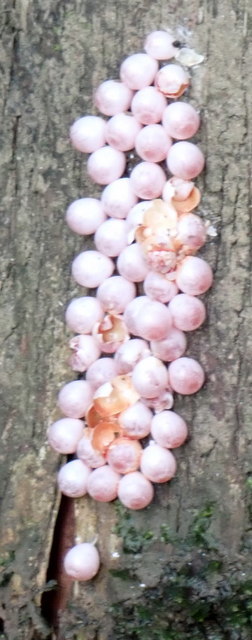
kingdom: Animalia
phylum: Mollusca
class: Gastropoda
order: Architaenioglossa
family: Ampullariidae
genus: Pomacea
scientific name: Pomacea paludosa
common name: Florida applesnail
